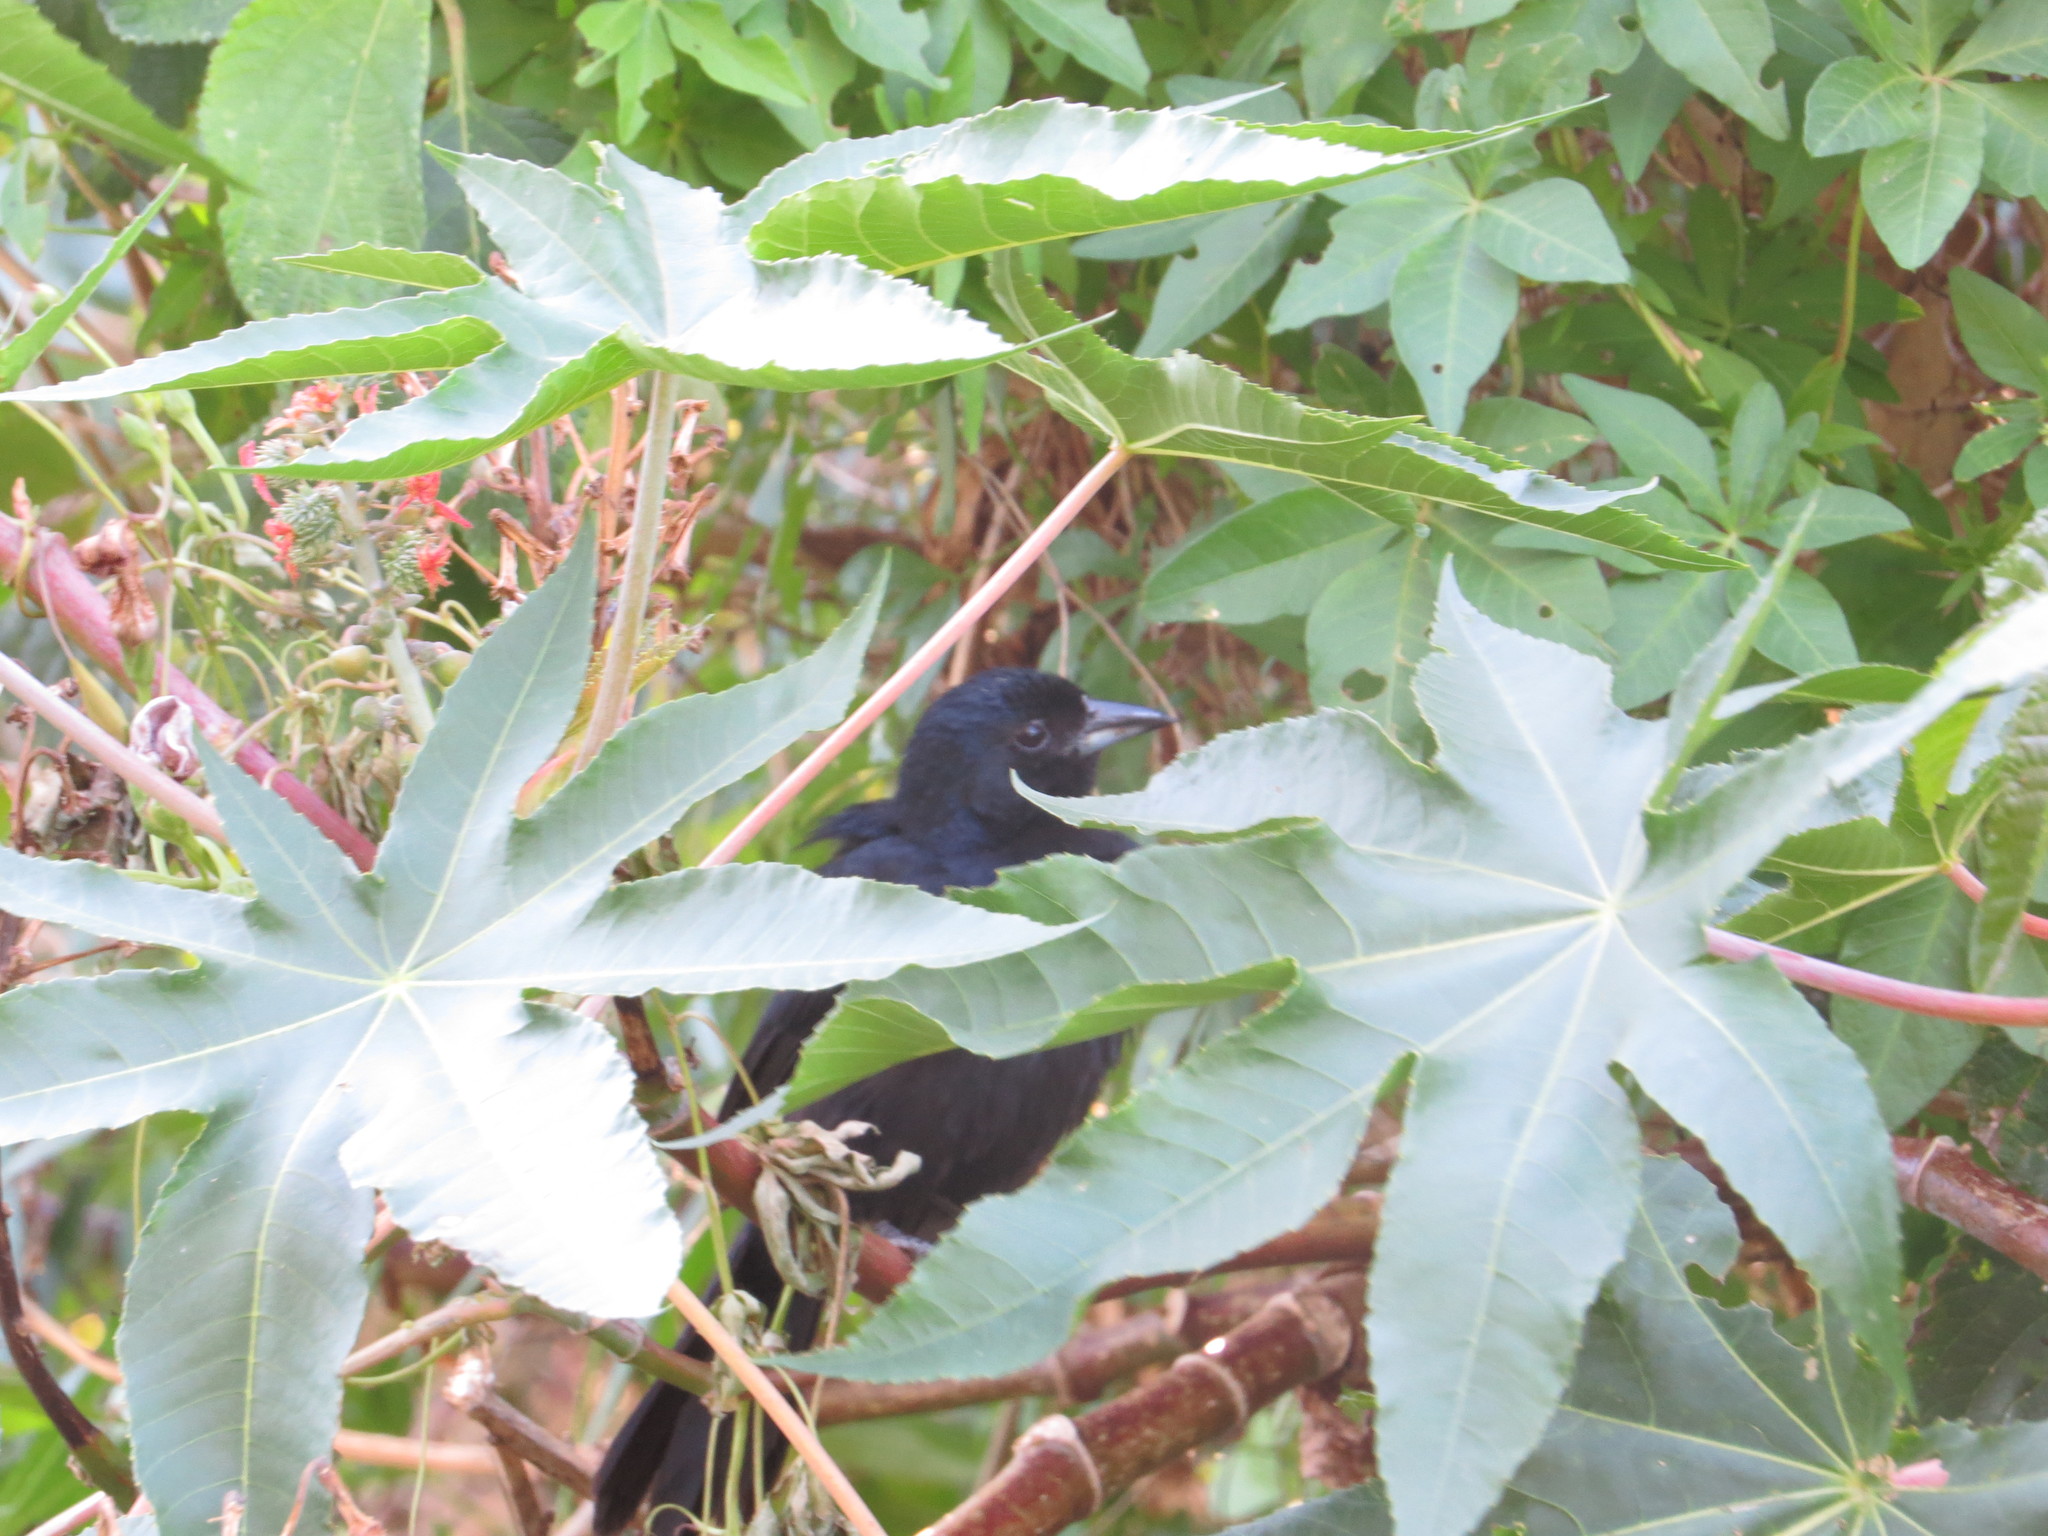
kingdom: Plantae
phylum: Tracheophyta
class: Magnoliopsida
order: Malpighiales
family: Euphorbiaceae
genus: Ricinus
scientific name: Ricinus communis
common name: Castor-oil-plant
